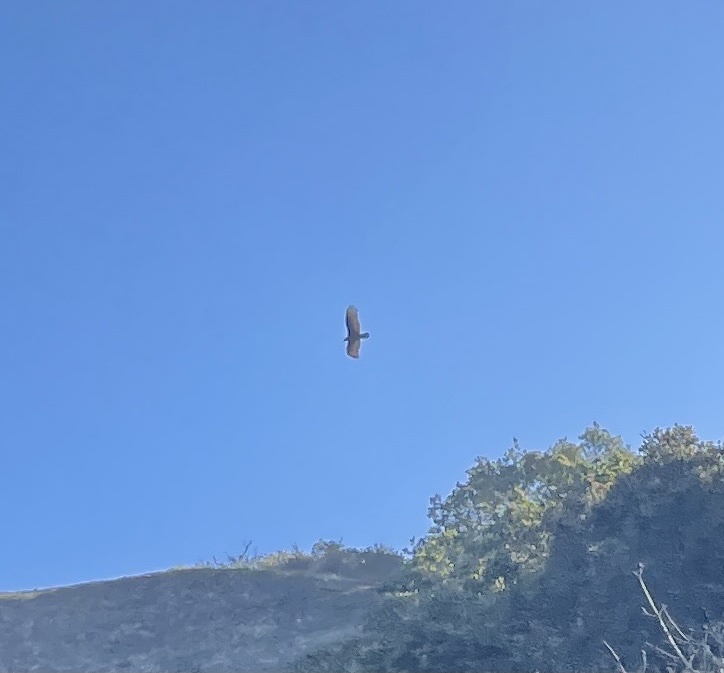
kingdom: Animalia
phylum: Chordata
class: Aves
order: Accipitriformes
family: Cathartidae
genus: Cathartes
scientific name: Cathartes aura
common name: Turkey vulture
